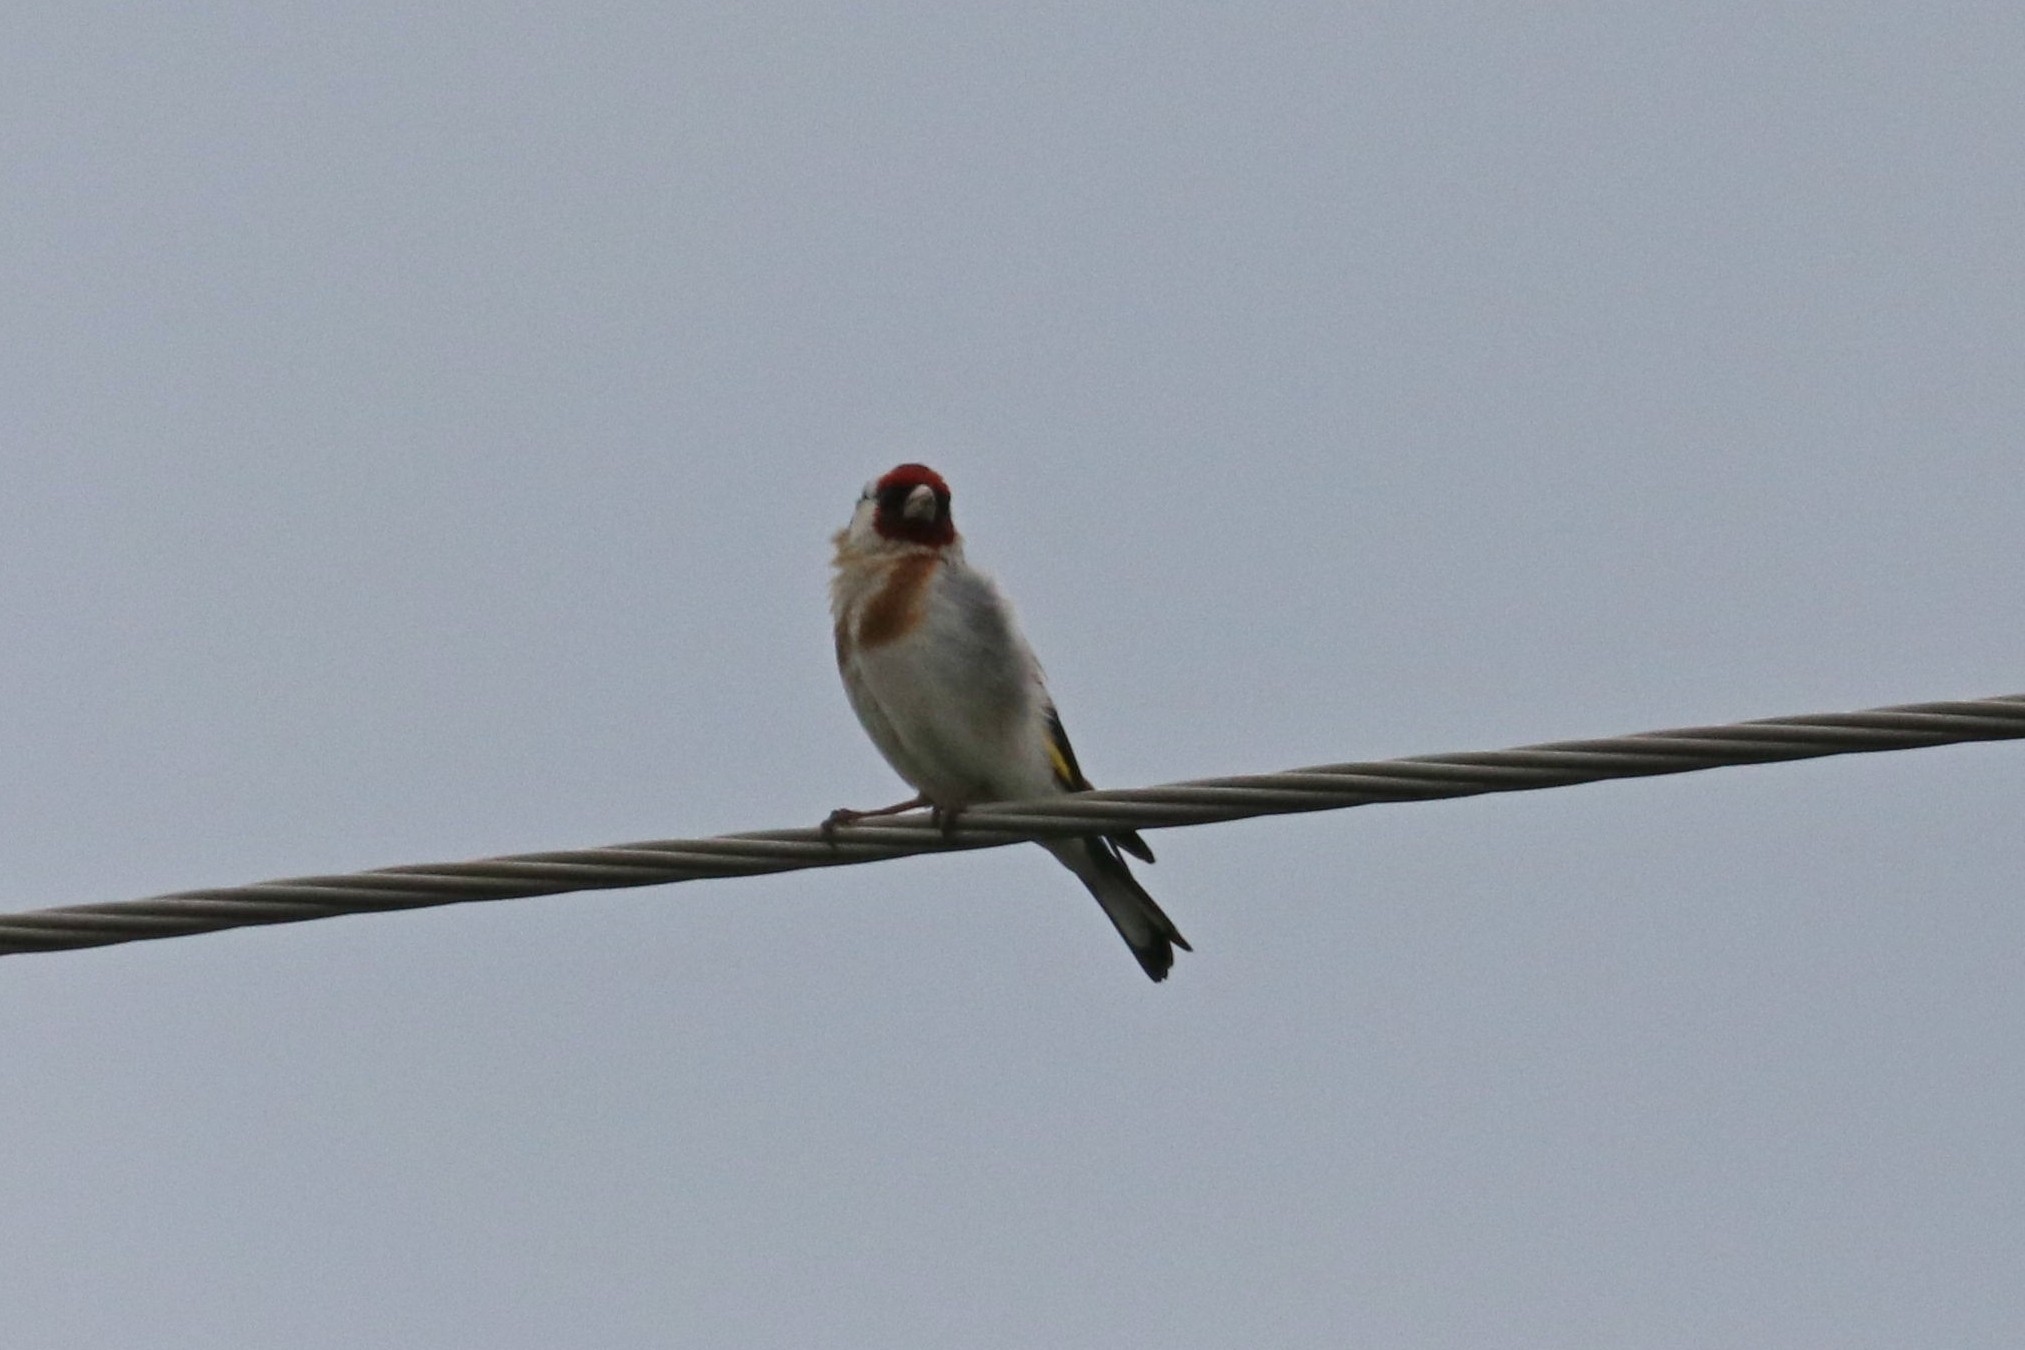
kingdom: Animalia
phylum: Chordata
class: Aves
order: Passeriformes
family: Fringillidae
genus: Carduelis
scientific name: Carduelis carduelis
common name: European goldfinch
